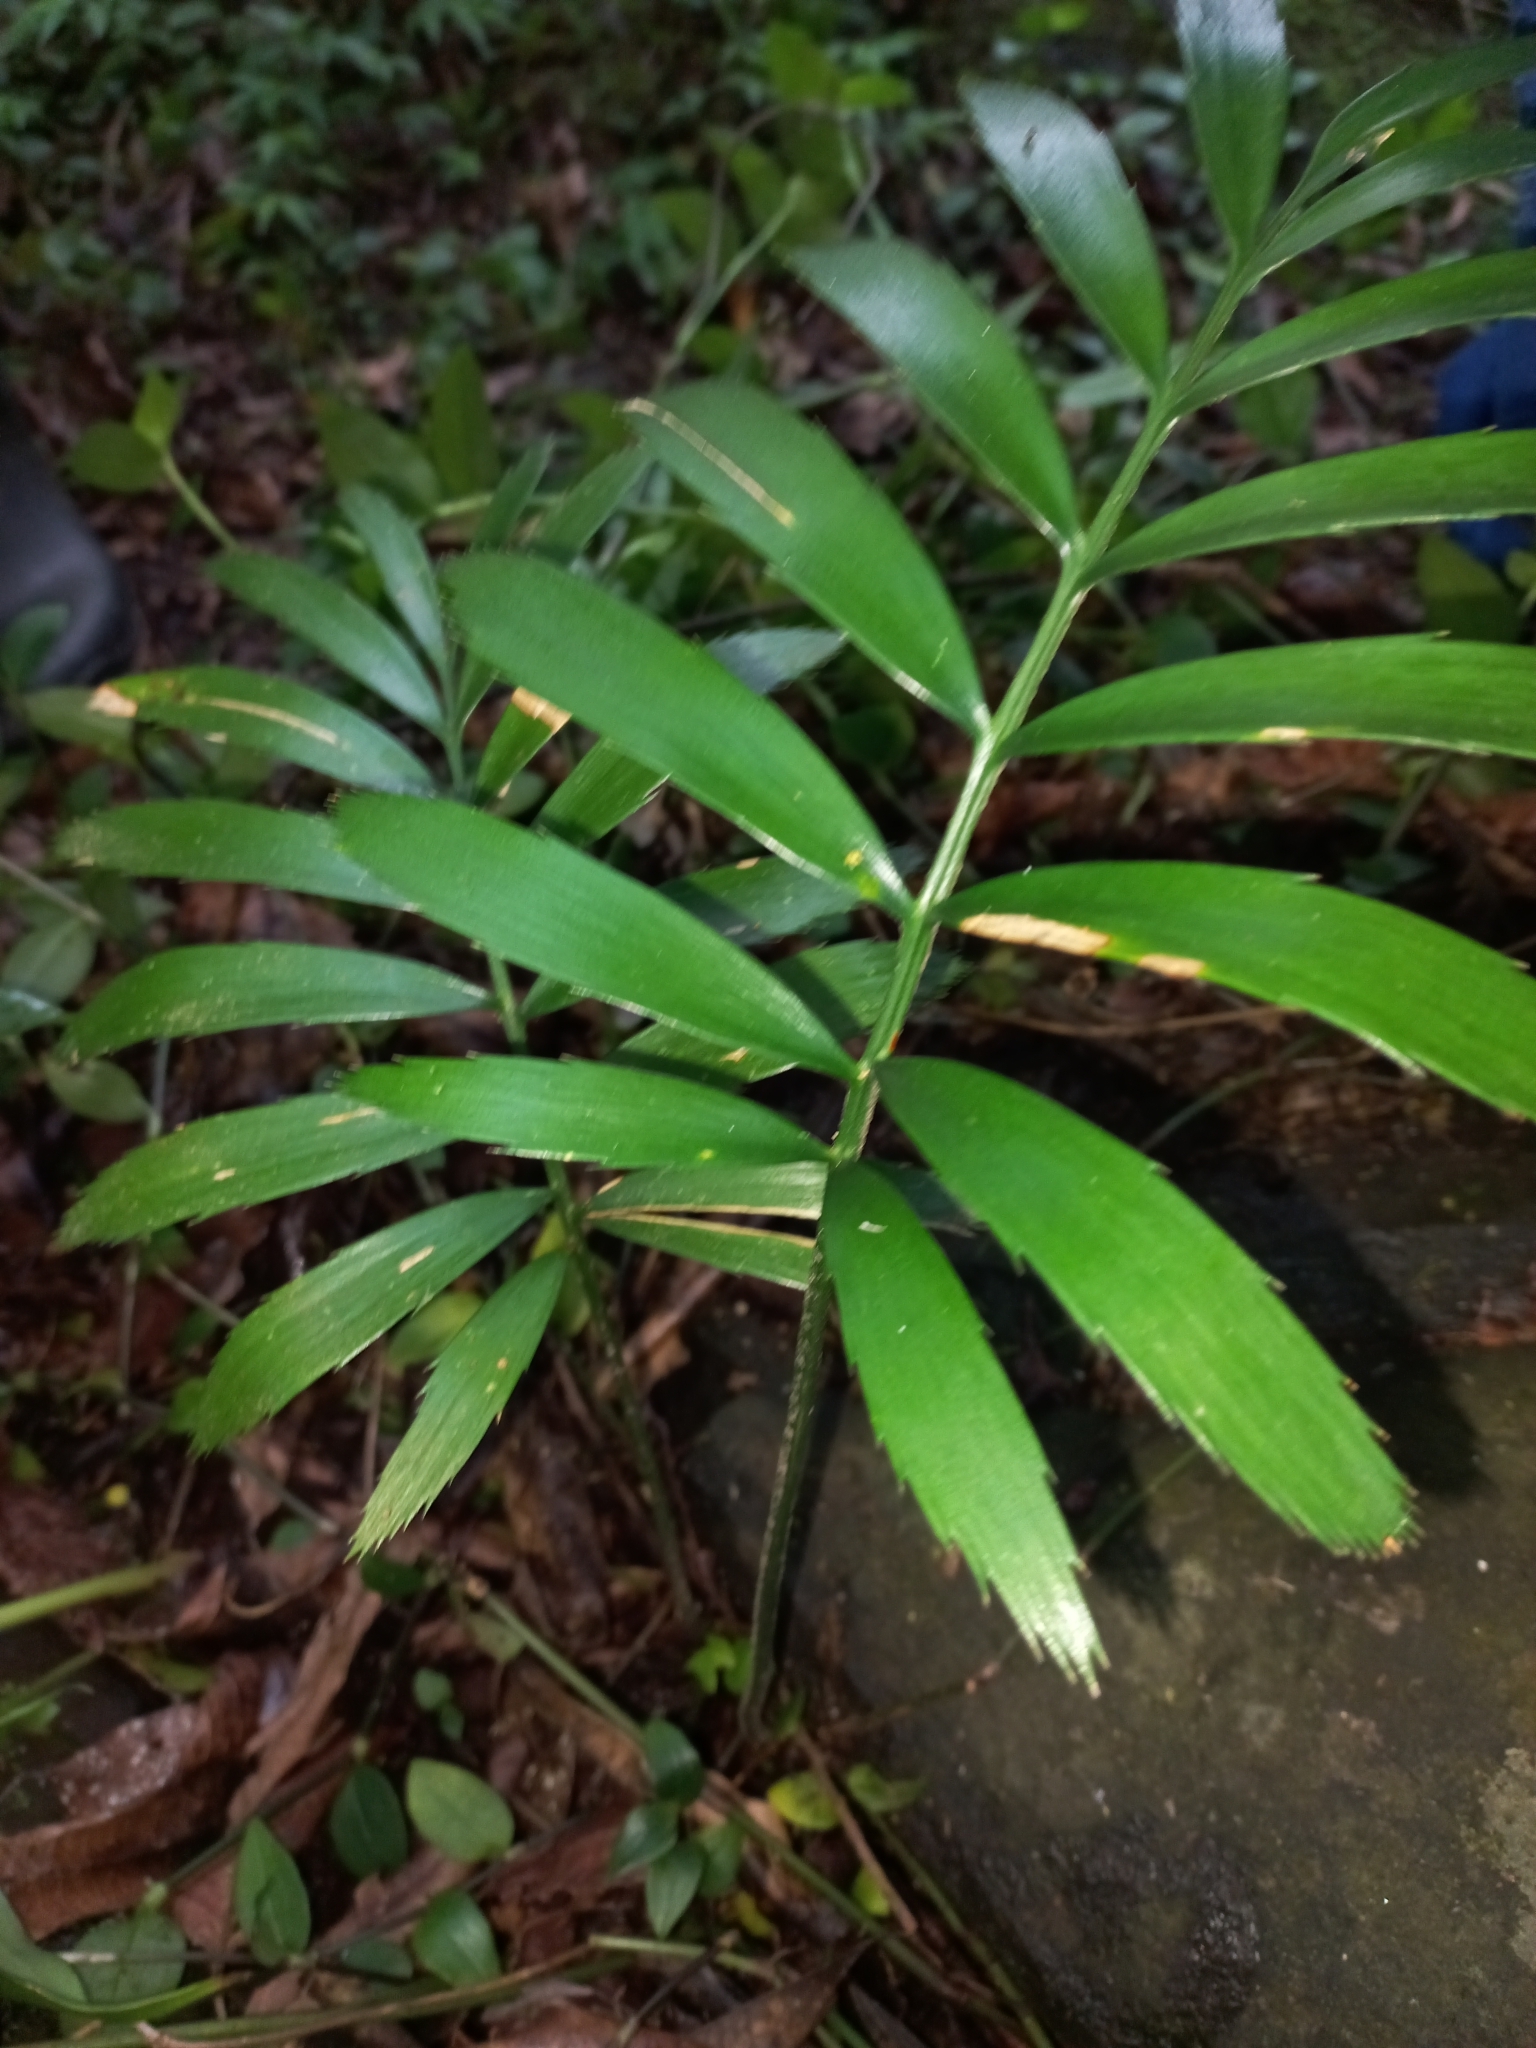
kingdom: Plantae
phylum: Tracheophyta
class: Cycadopsida
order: Cycadales
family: Zamiaceae
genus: Encephalartos
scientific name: Encephalartos villosus
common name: Poor man's cycad
